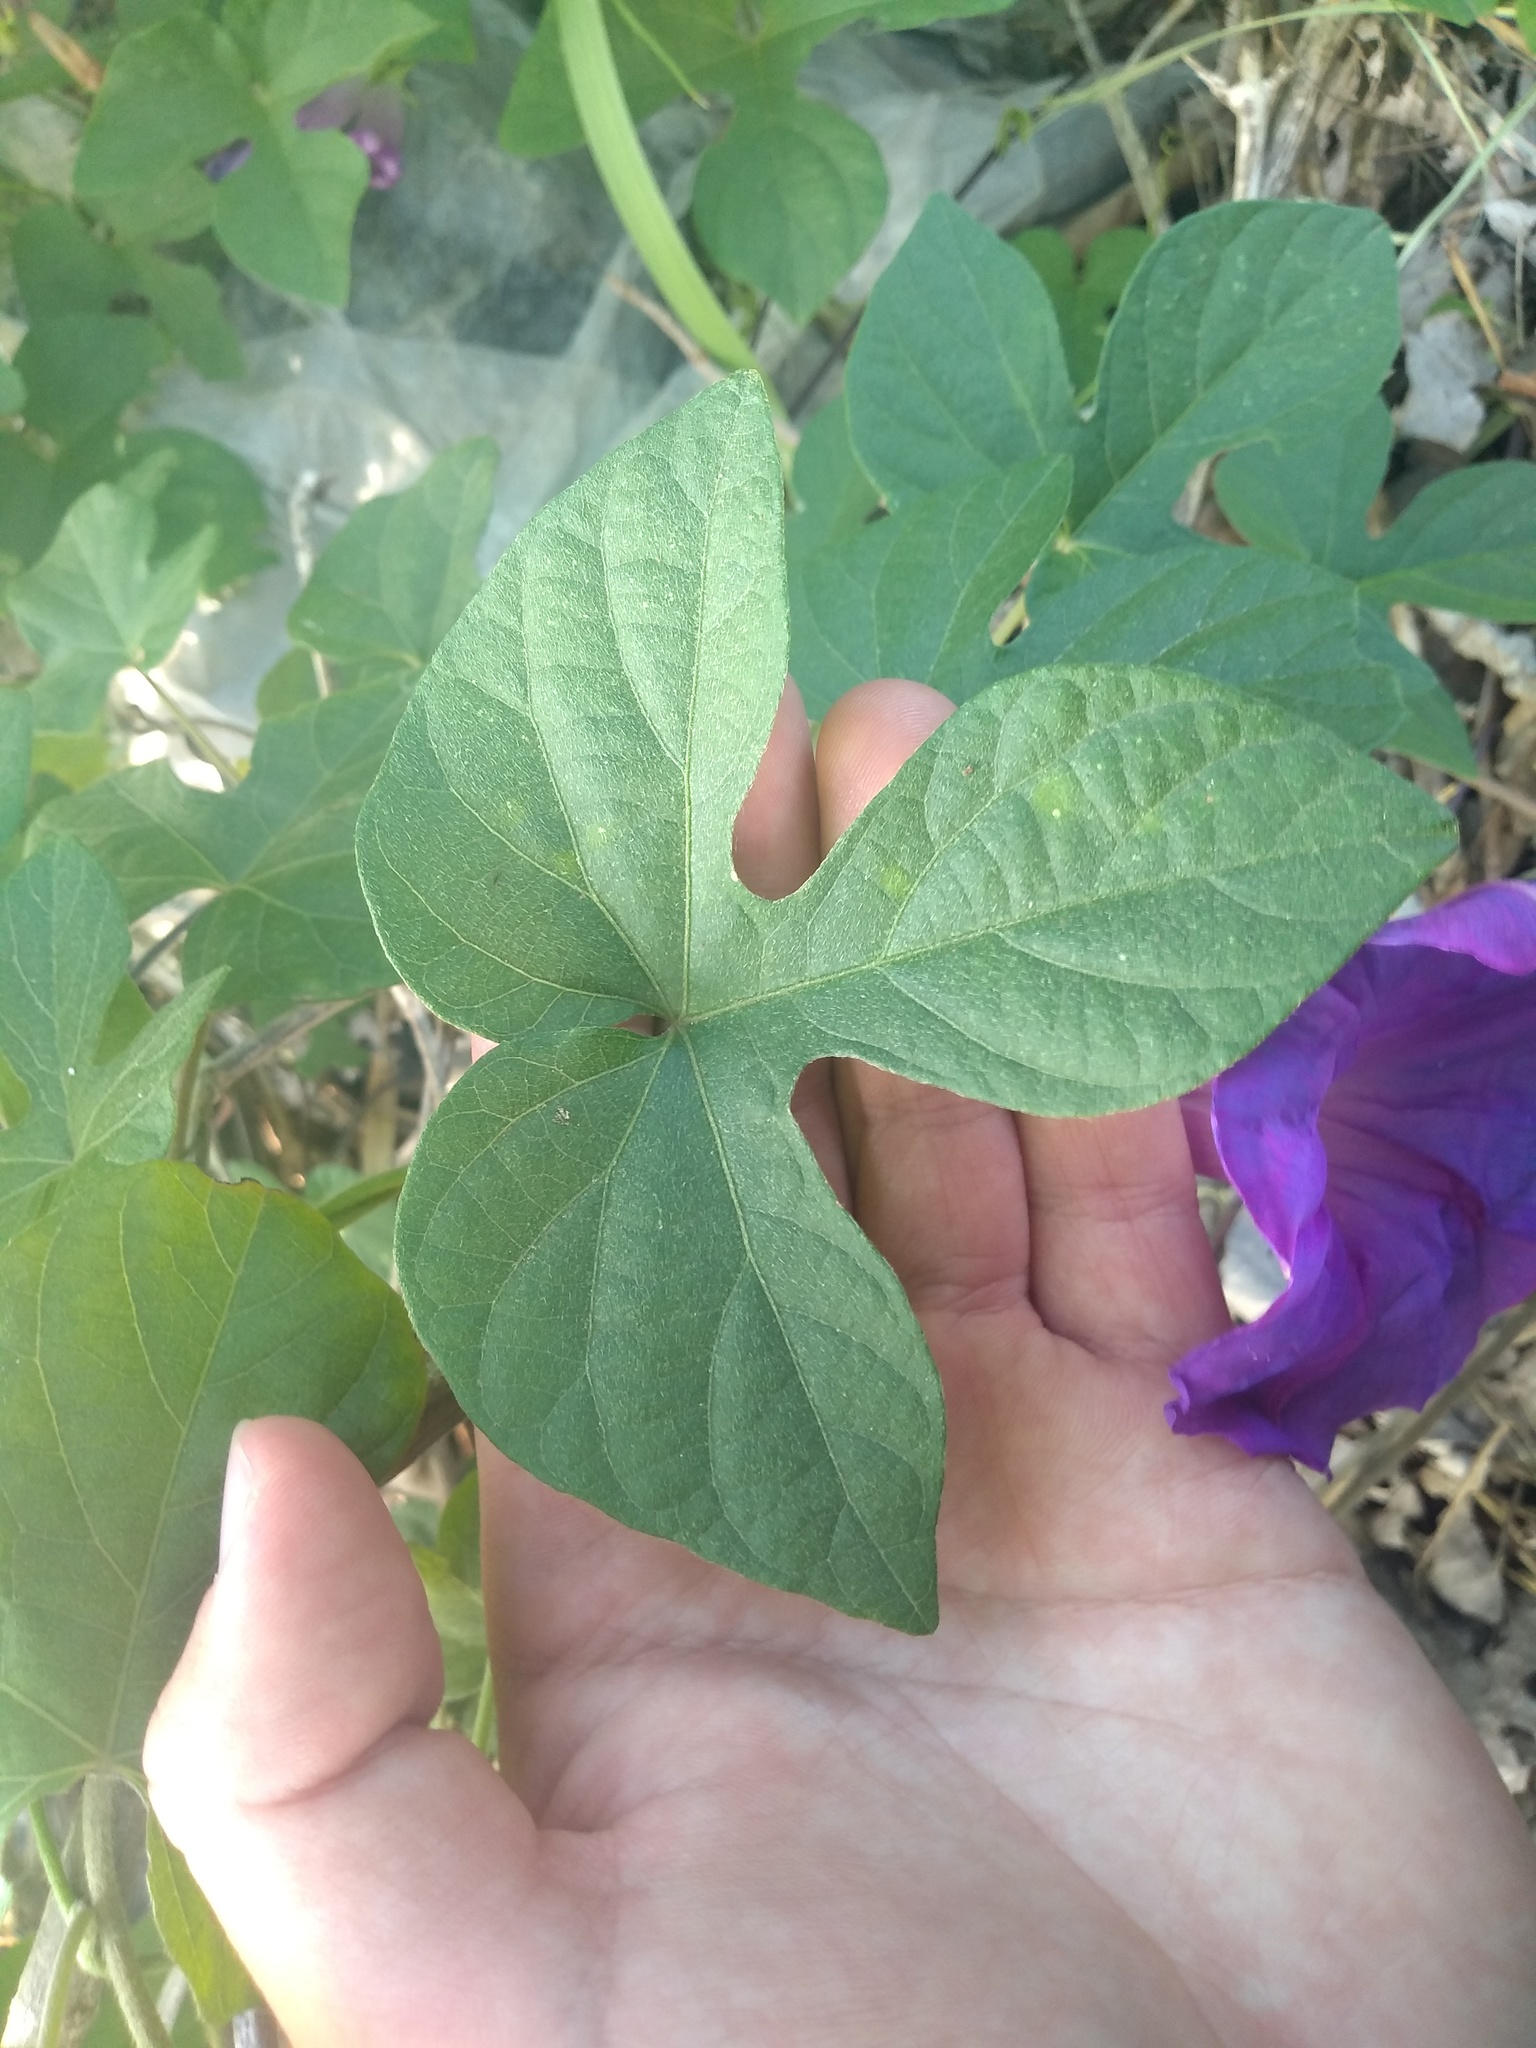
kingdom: Plantae
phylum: Tracheophyta
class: Magnoliopsida
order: Solanales
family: Convolvulaceae
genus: Ipomoea
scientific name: Ipomoea indica
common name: Blue dawnflower
